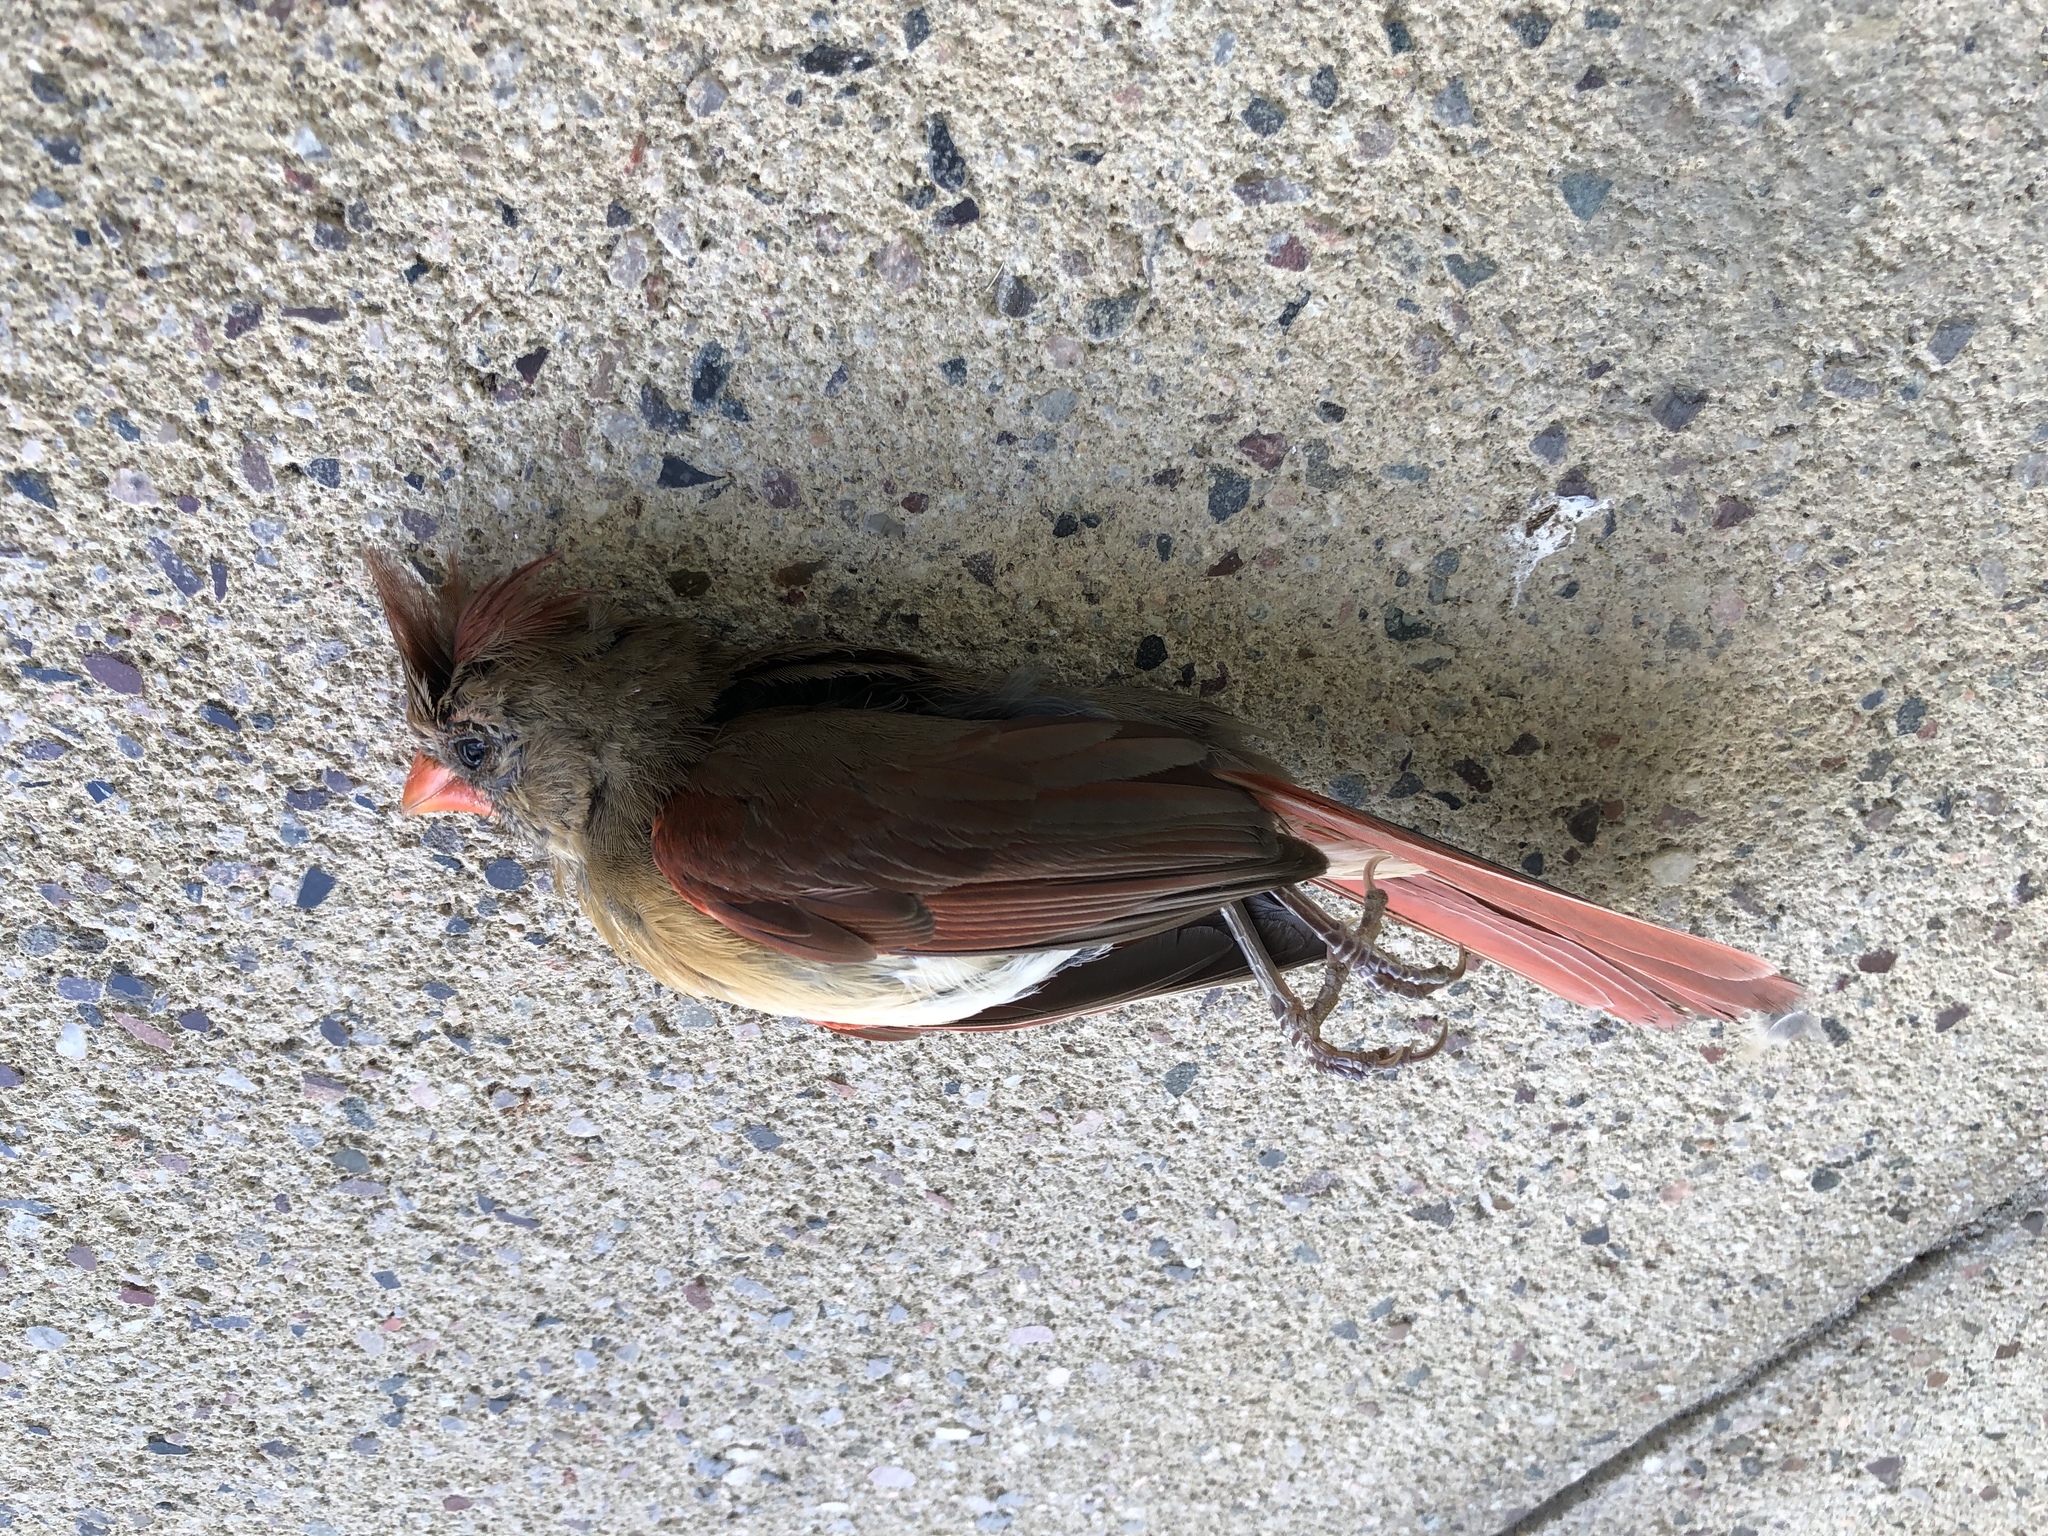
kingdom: Animalia
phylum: Chordata
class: Aves
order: Passeriformes
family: Cardinalidae
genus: Cardinalis
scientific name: Cardinalis cardinalis
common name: Northern cardinal
